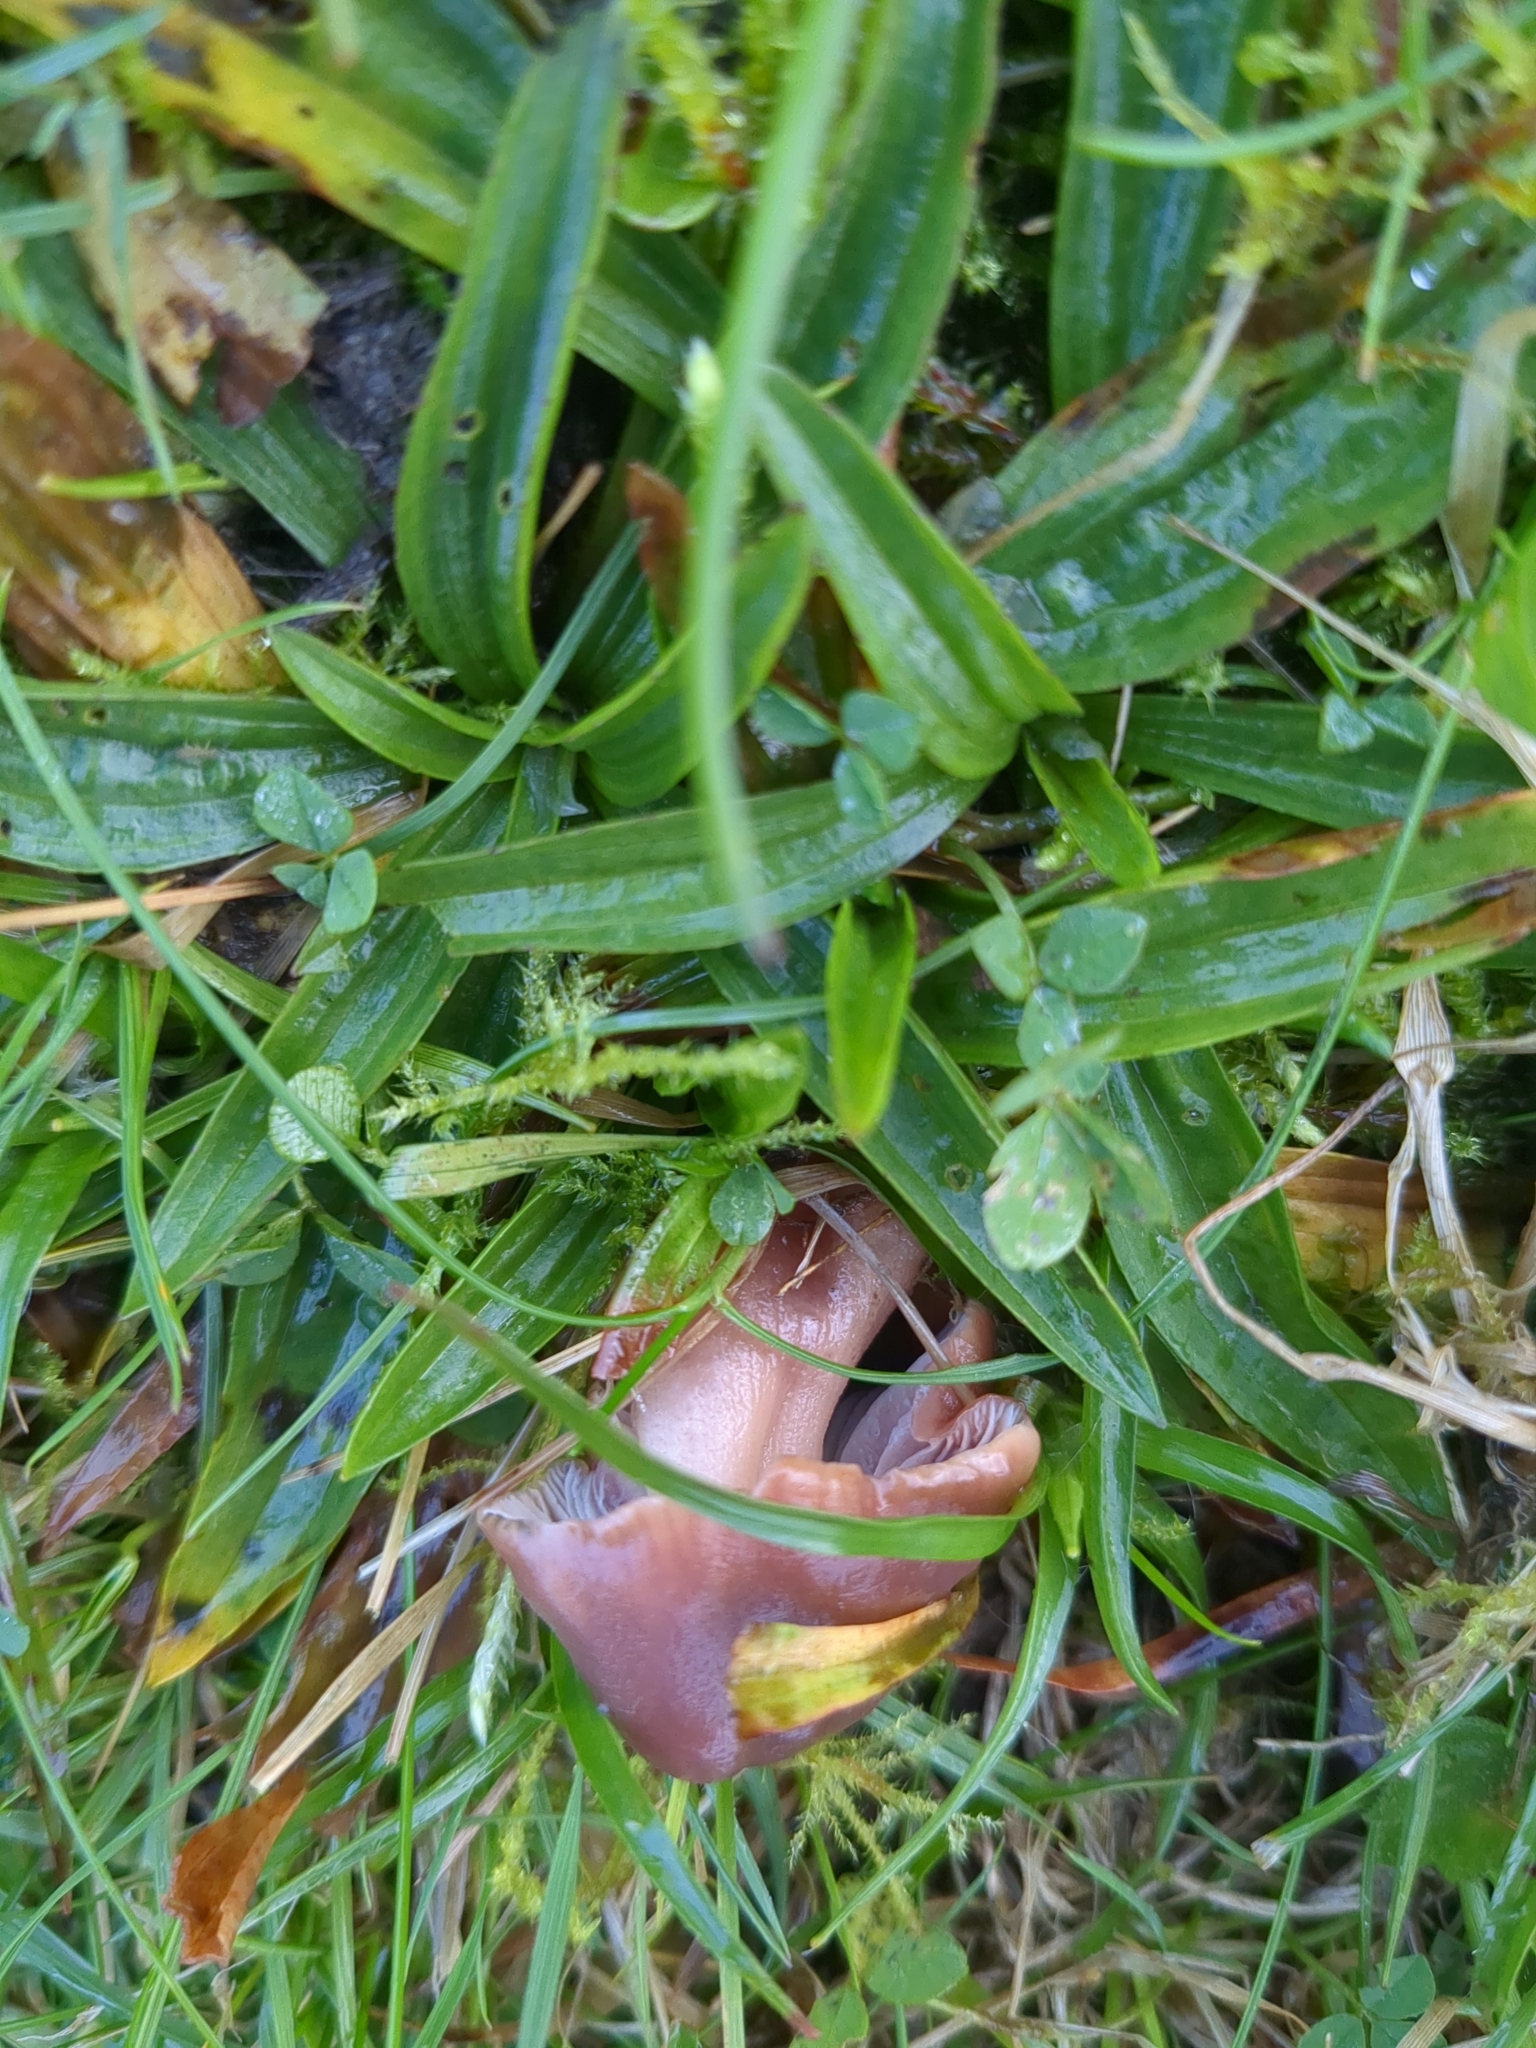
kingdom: Fungi
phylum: Basidiomycota
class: Agaricomycetes
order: Agaricales
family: Hygrophoraceae
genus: Gliophorus
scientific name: Gliophorus reginae
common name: Jubilee waxcap
